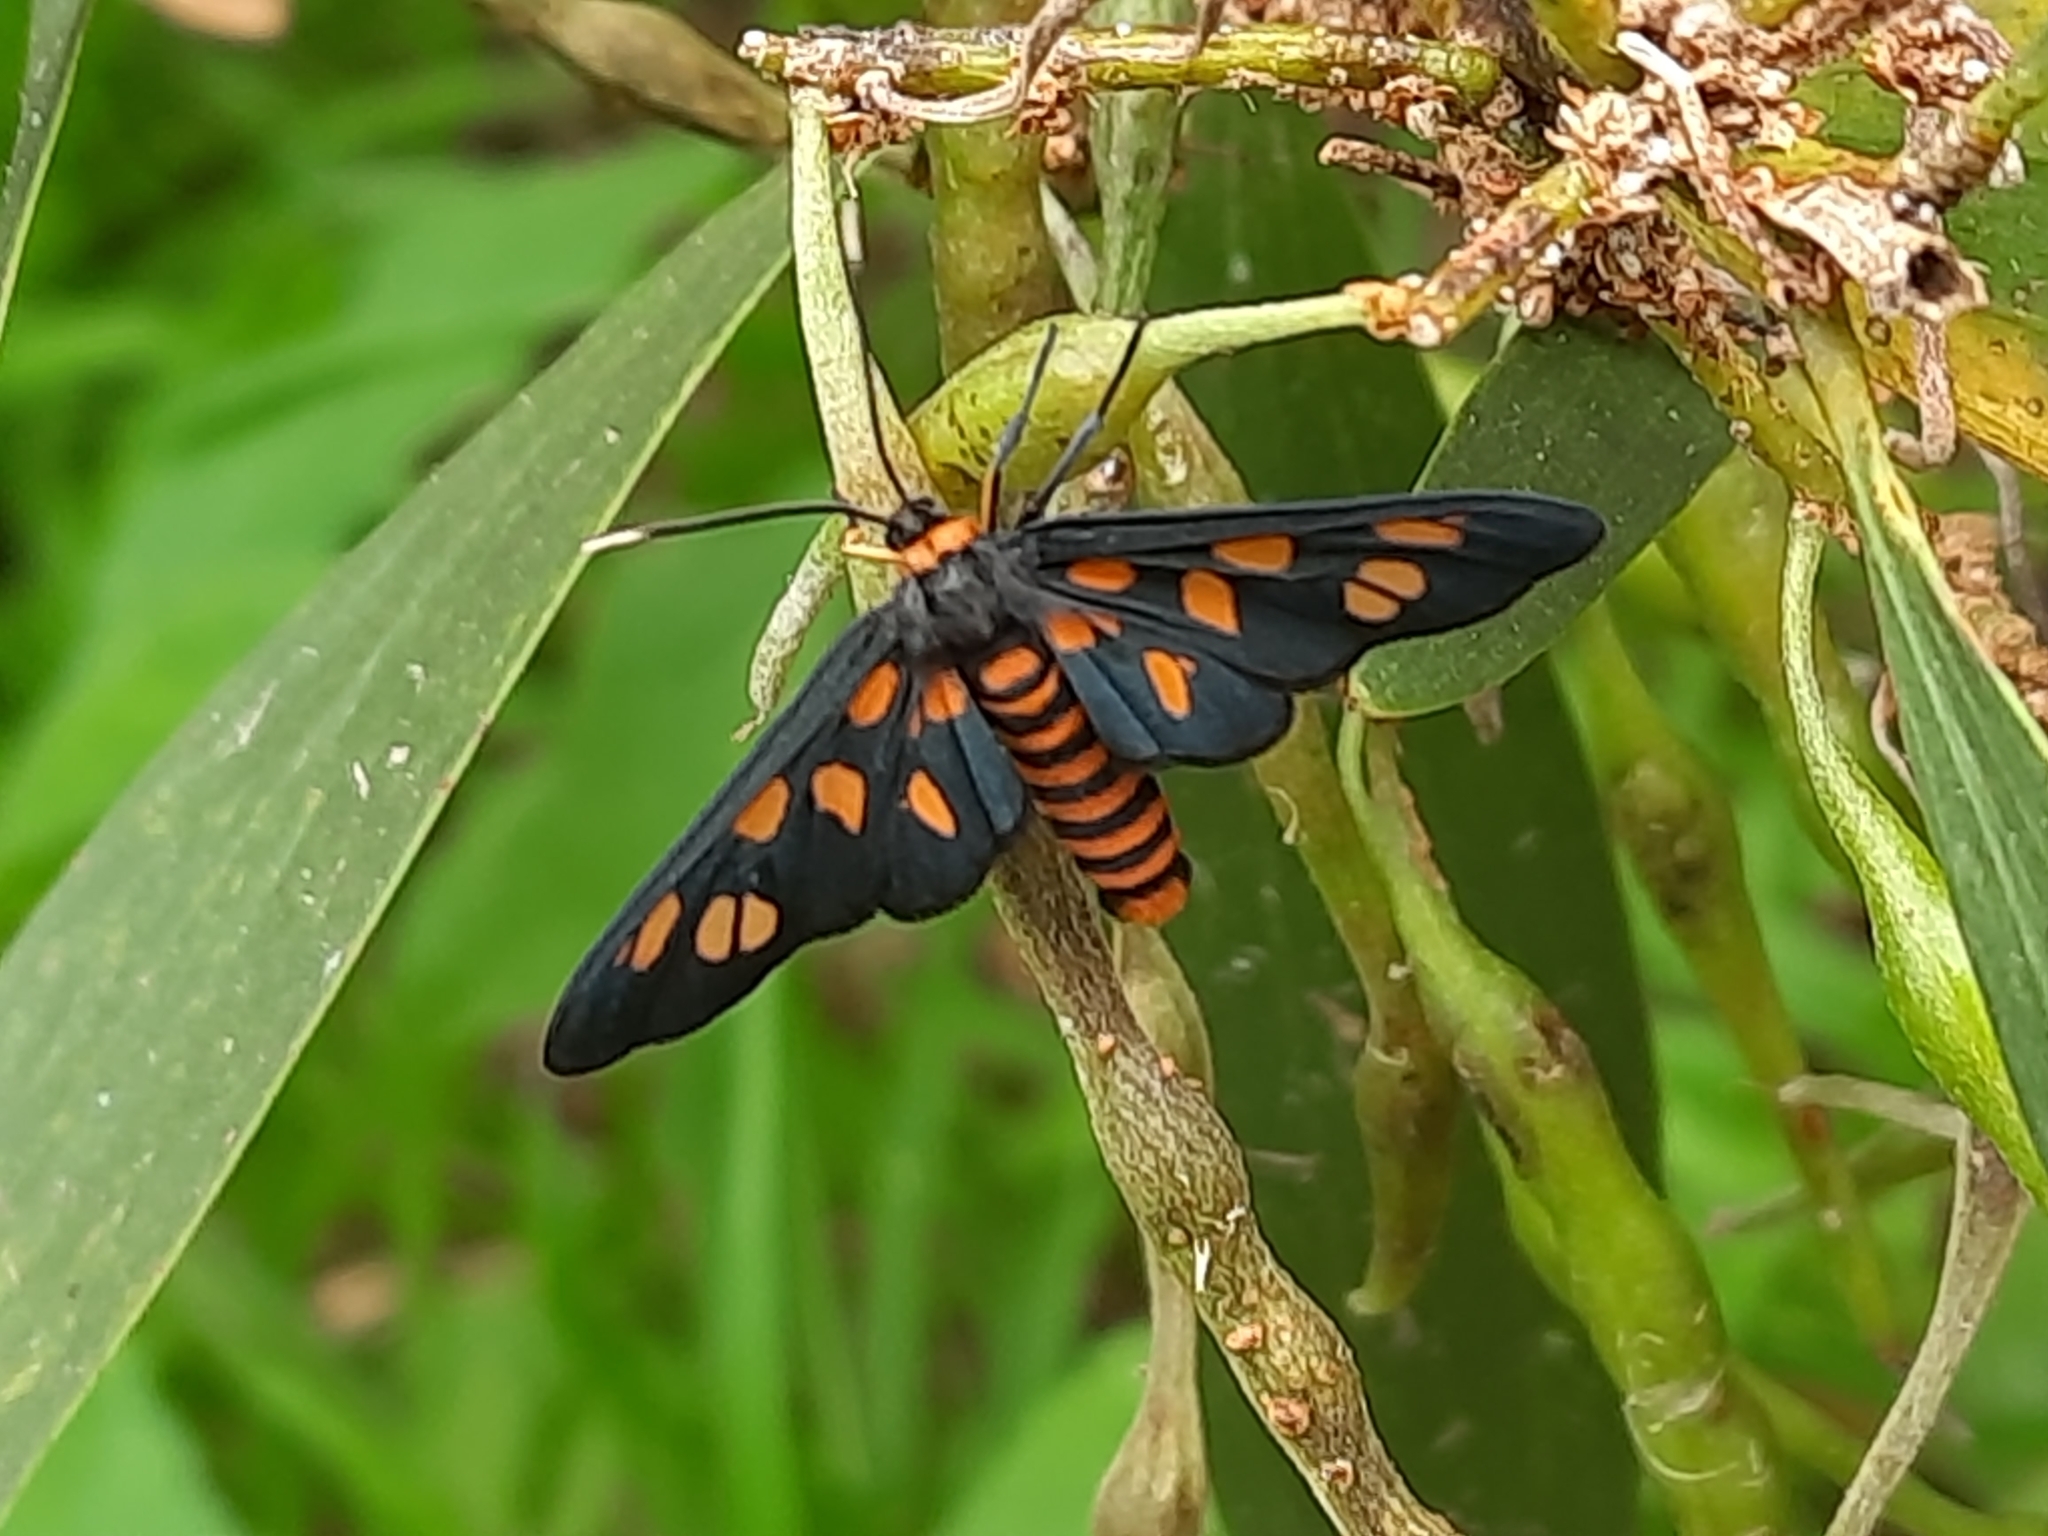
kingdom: Animalia
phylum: Arthropoda
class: Insecta
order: Lepidoptera
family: Erebidae
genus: Amata
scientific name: Amata nigriceps
